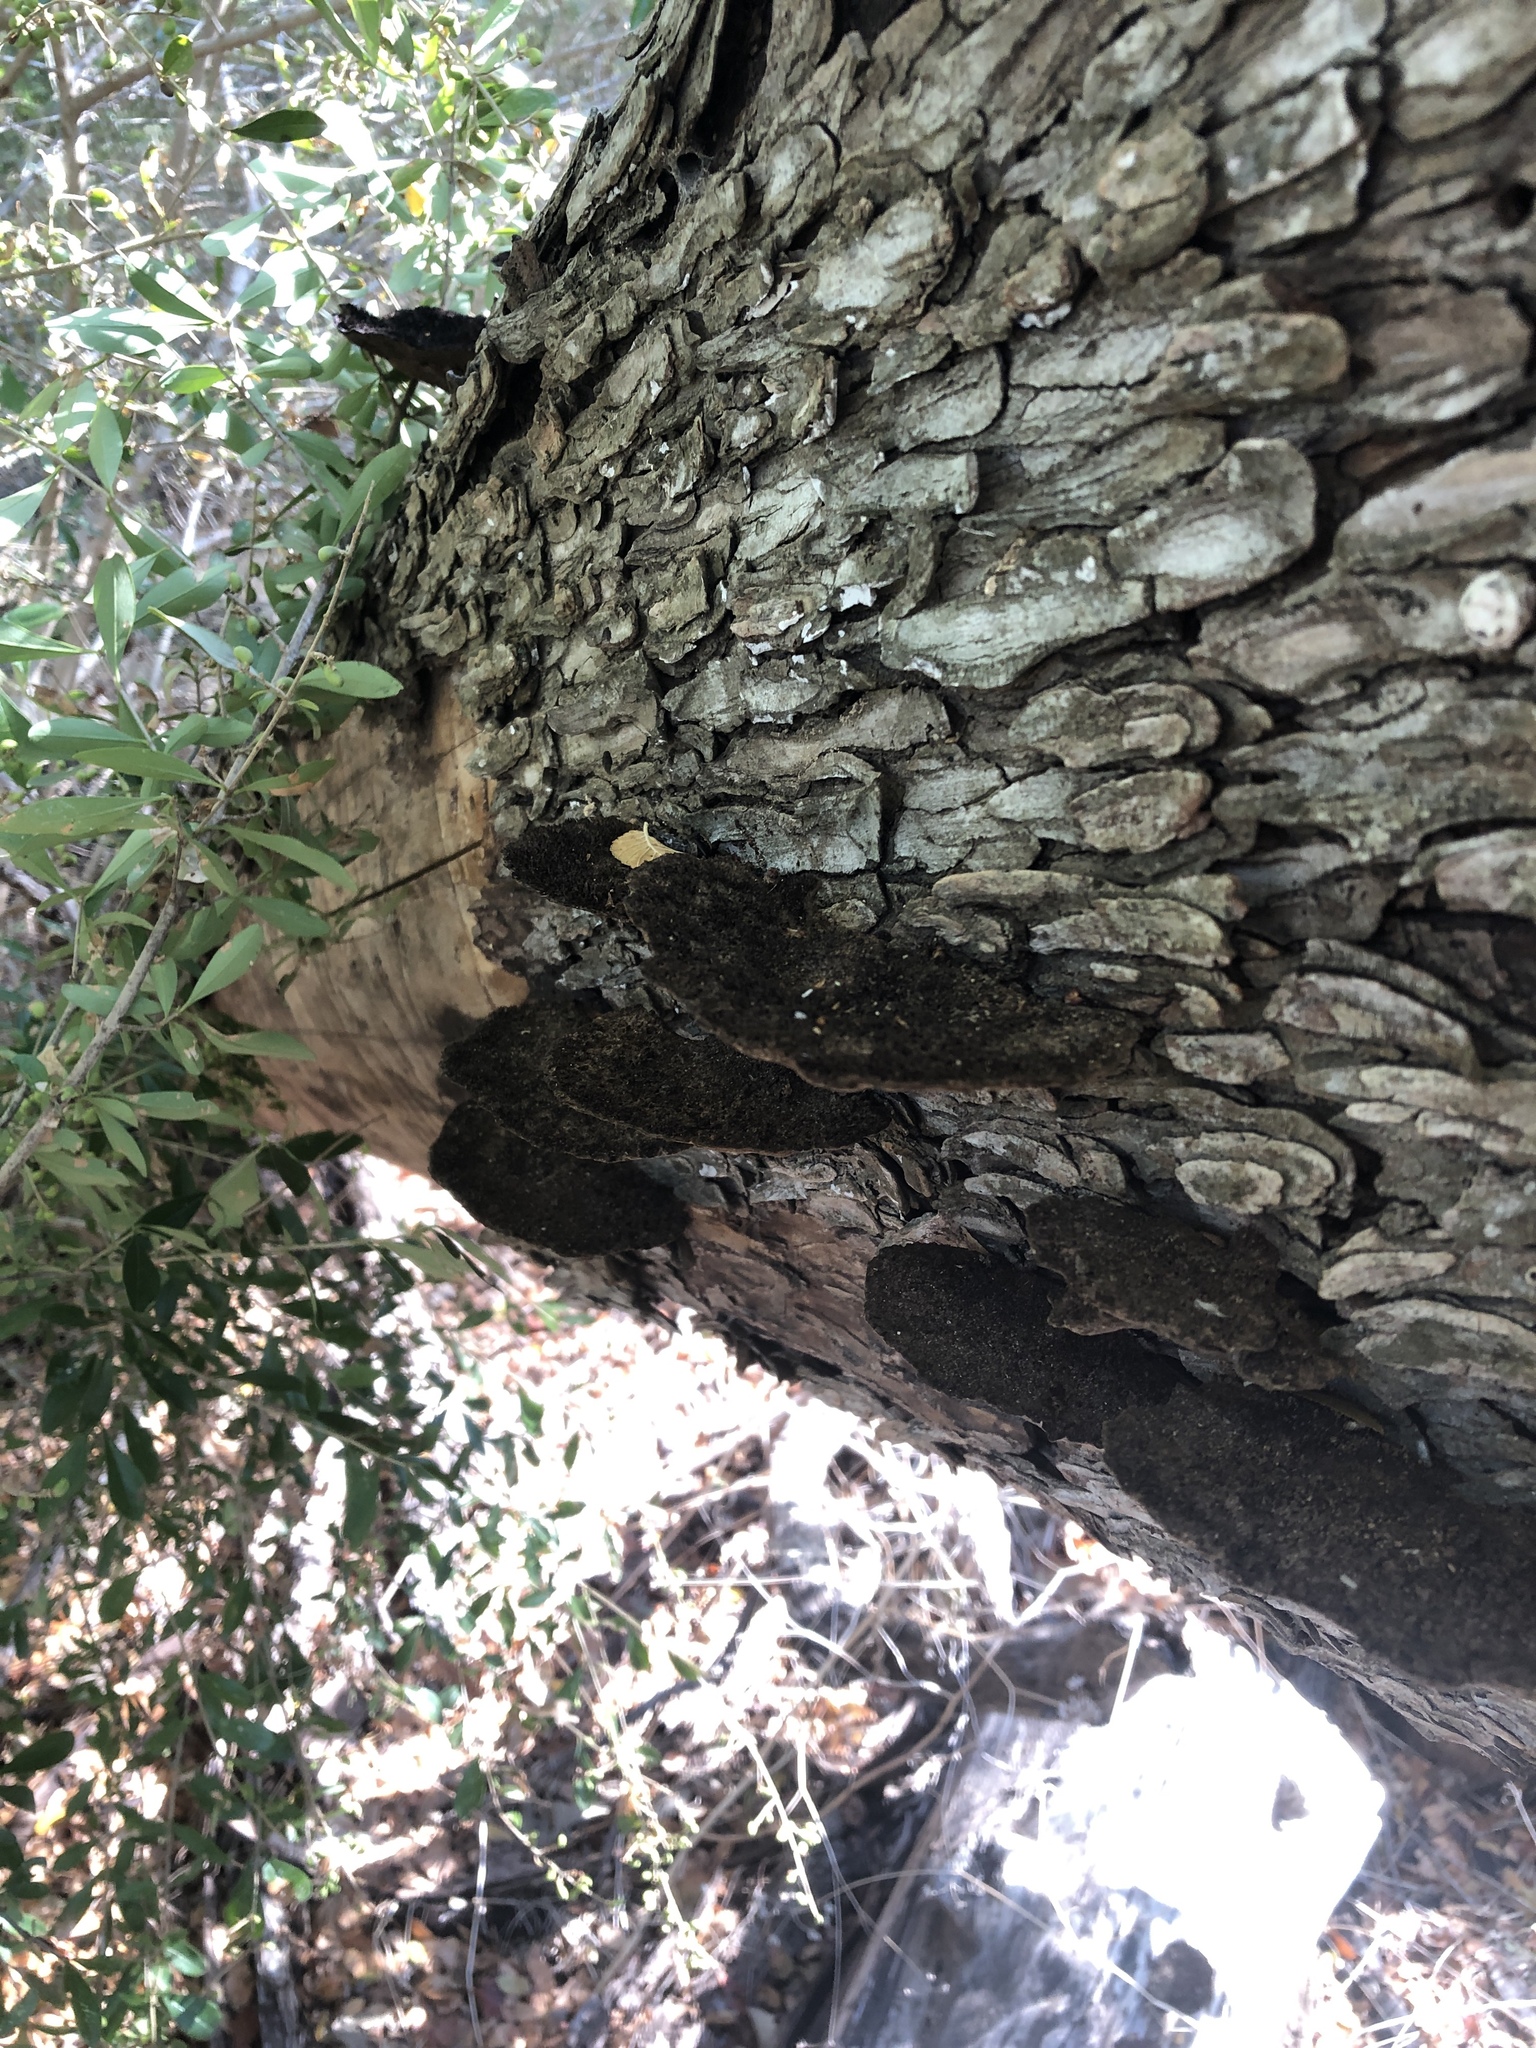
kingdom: Fungi
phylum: Basidiomycota
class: Agaricomycetes
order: Polyporales
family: Cerrenaceae
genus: Cerrena
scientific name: Cerrena hydnoides
